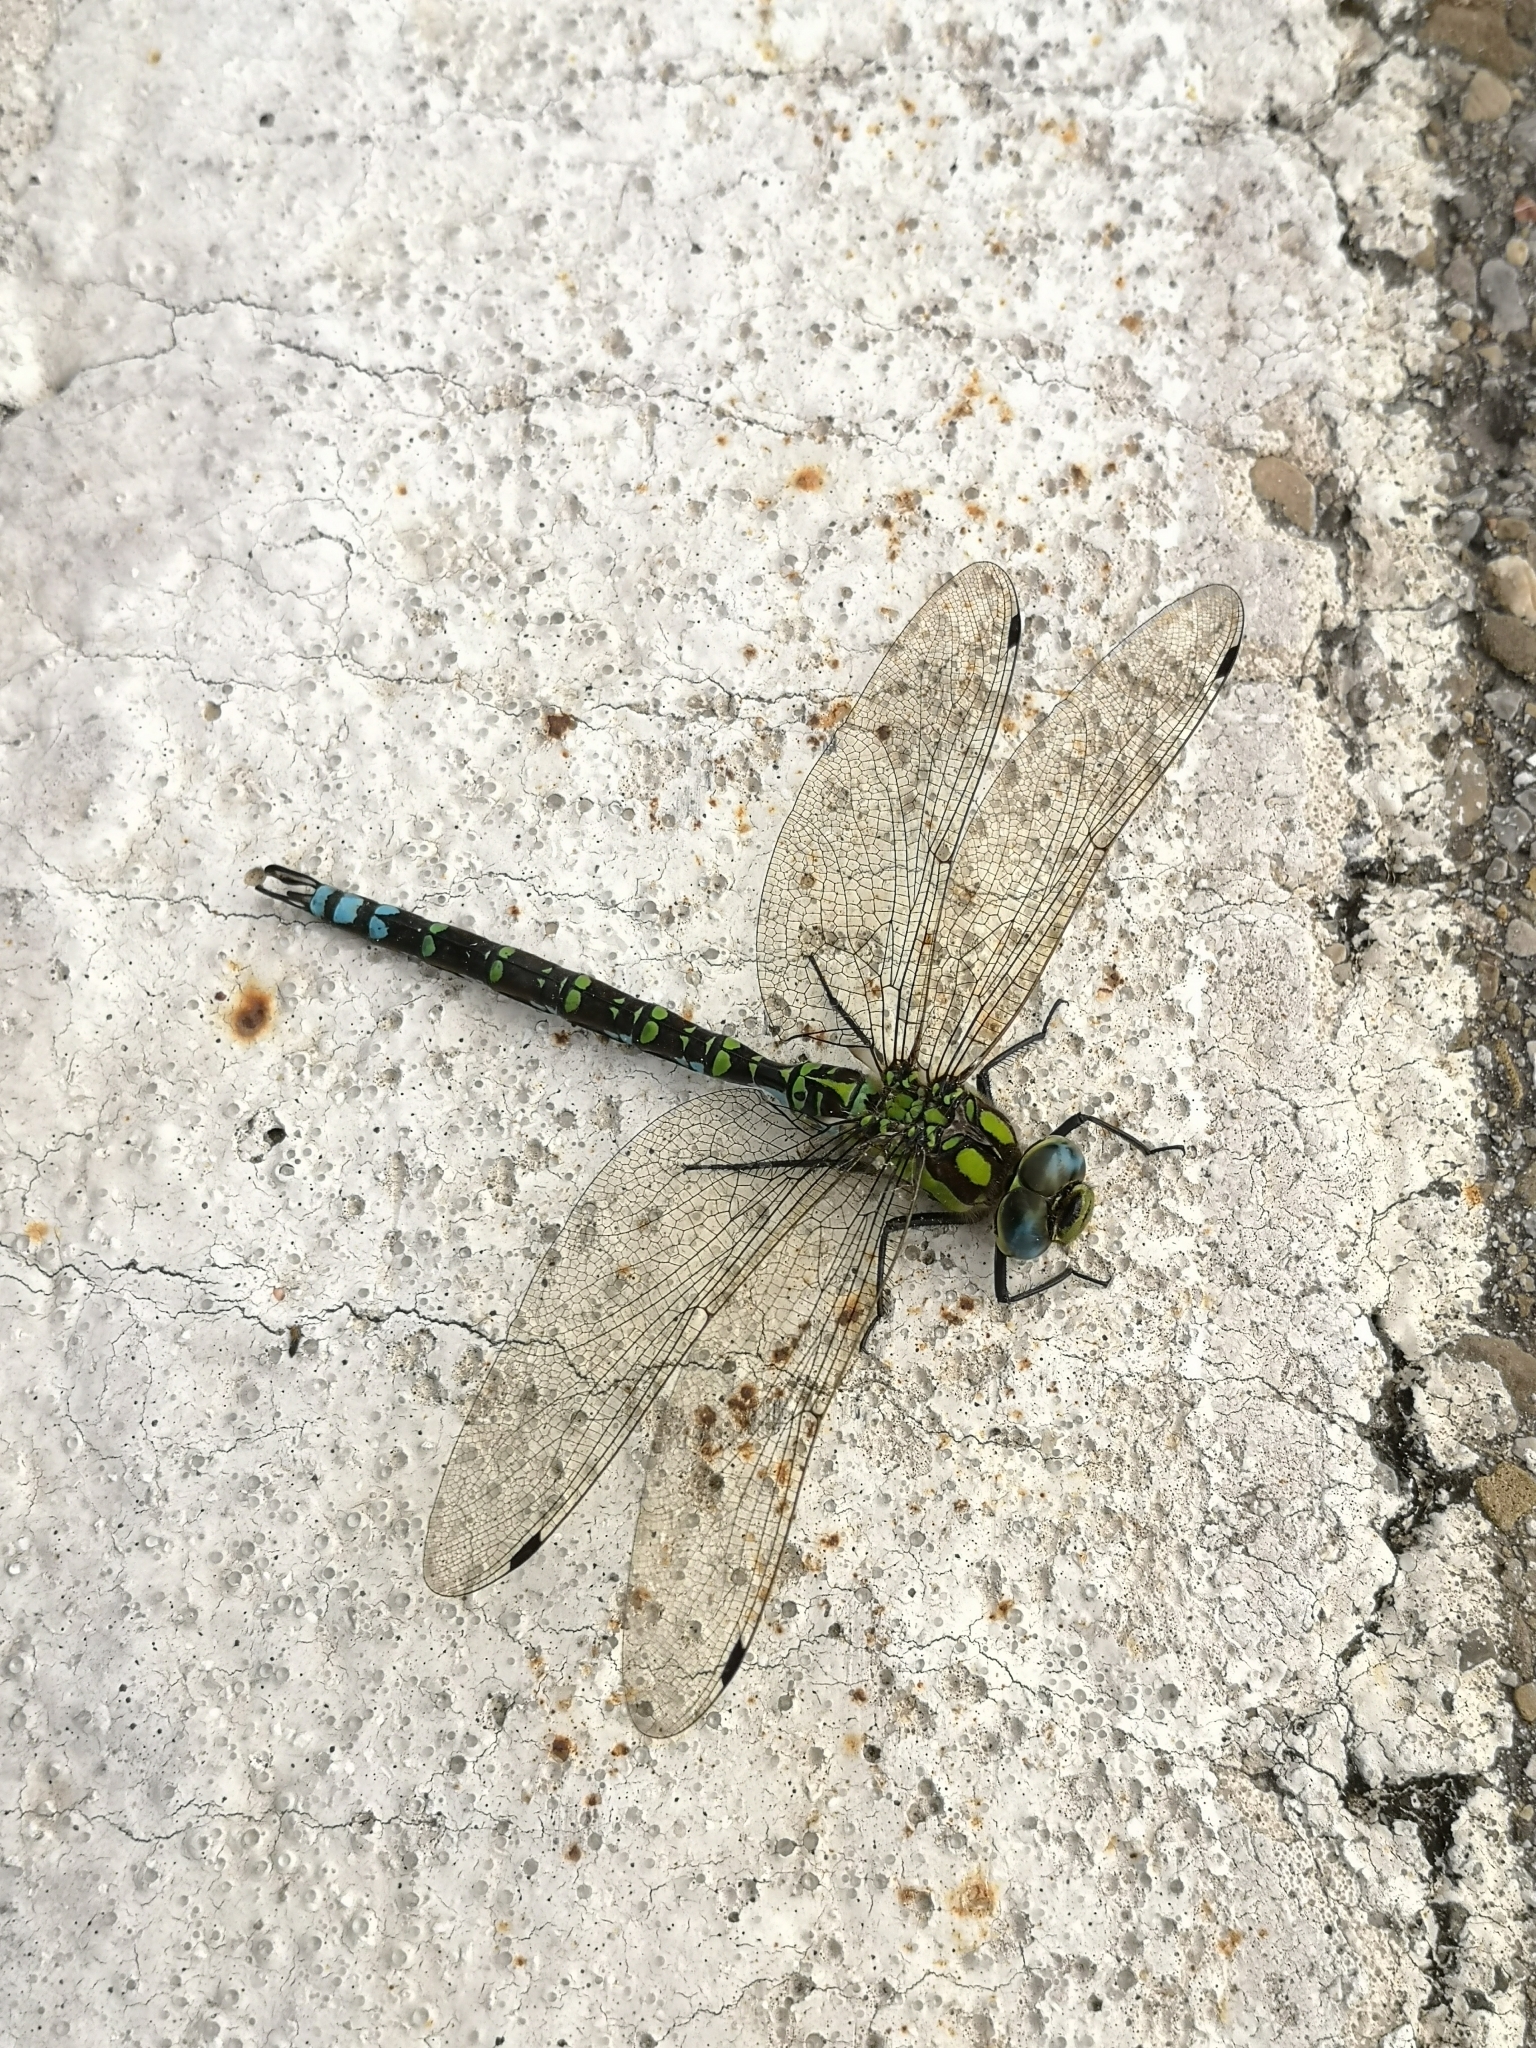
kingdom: Animalia
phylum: Arthropoda
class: Insecta
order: Odonata
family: Aeshnidae
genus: Aeshna
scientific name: Aeshna cyanea
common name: Southern hawker
